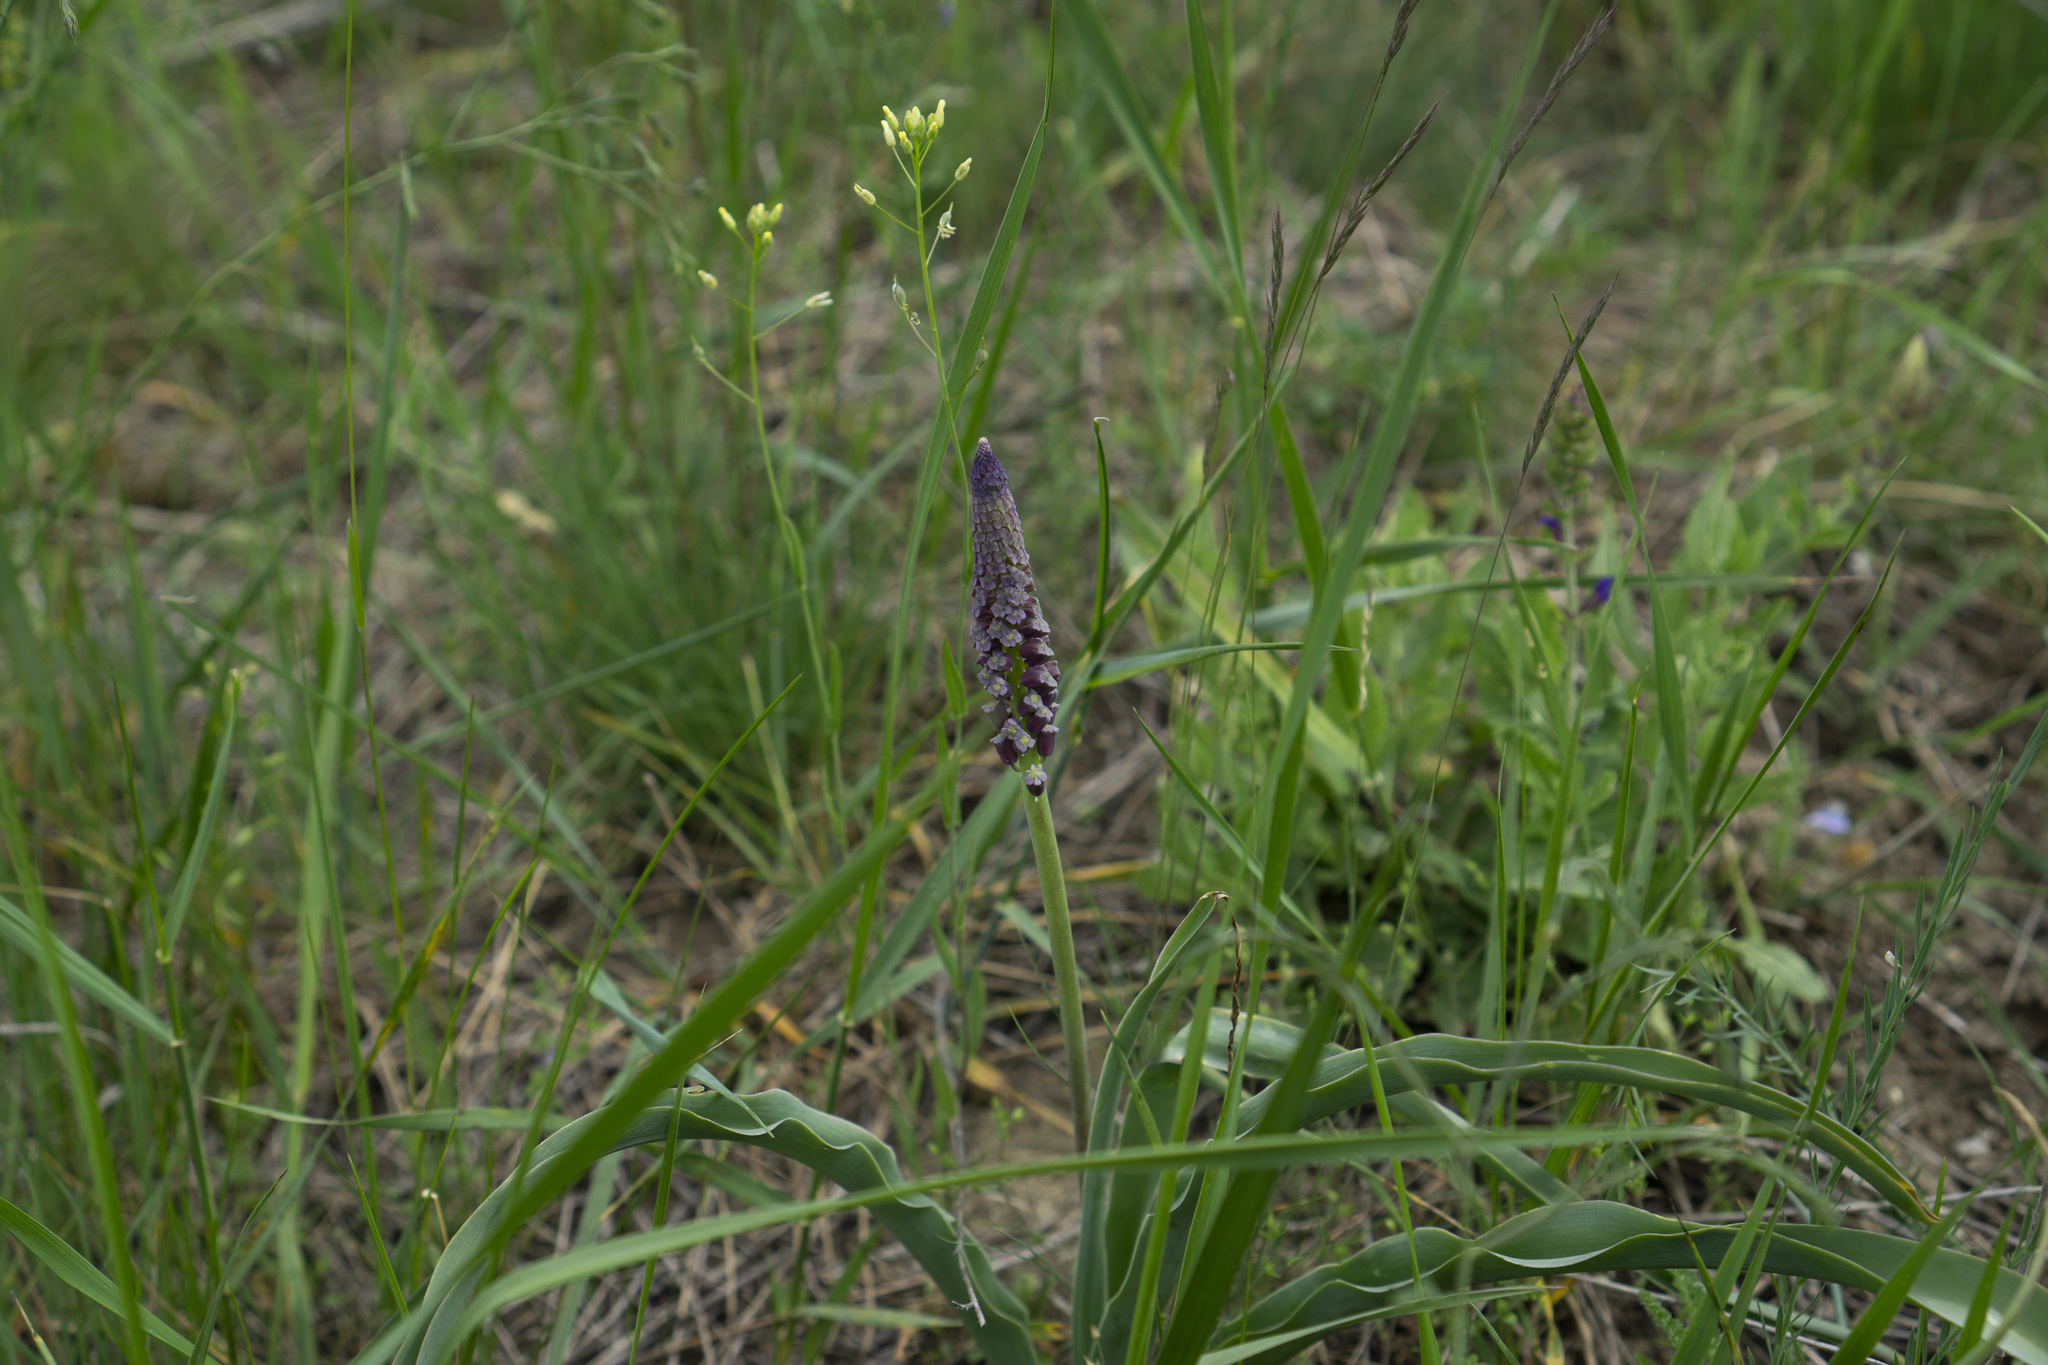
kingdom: Plantae
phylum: Tracheophyta
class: Liliopsida
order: Asparagales
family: Asparagaceae
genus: Muscari
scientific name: Muscari comosum
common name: Tassel hyacinth
